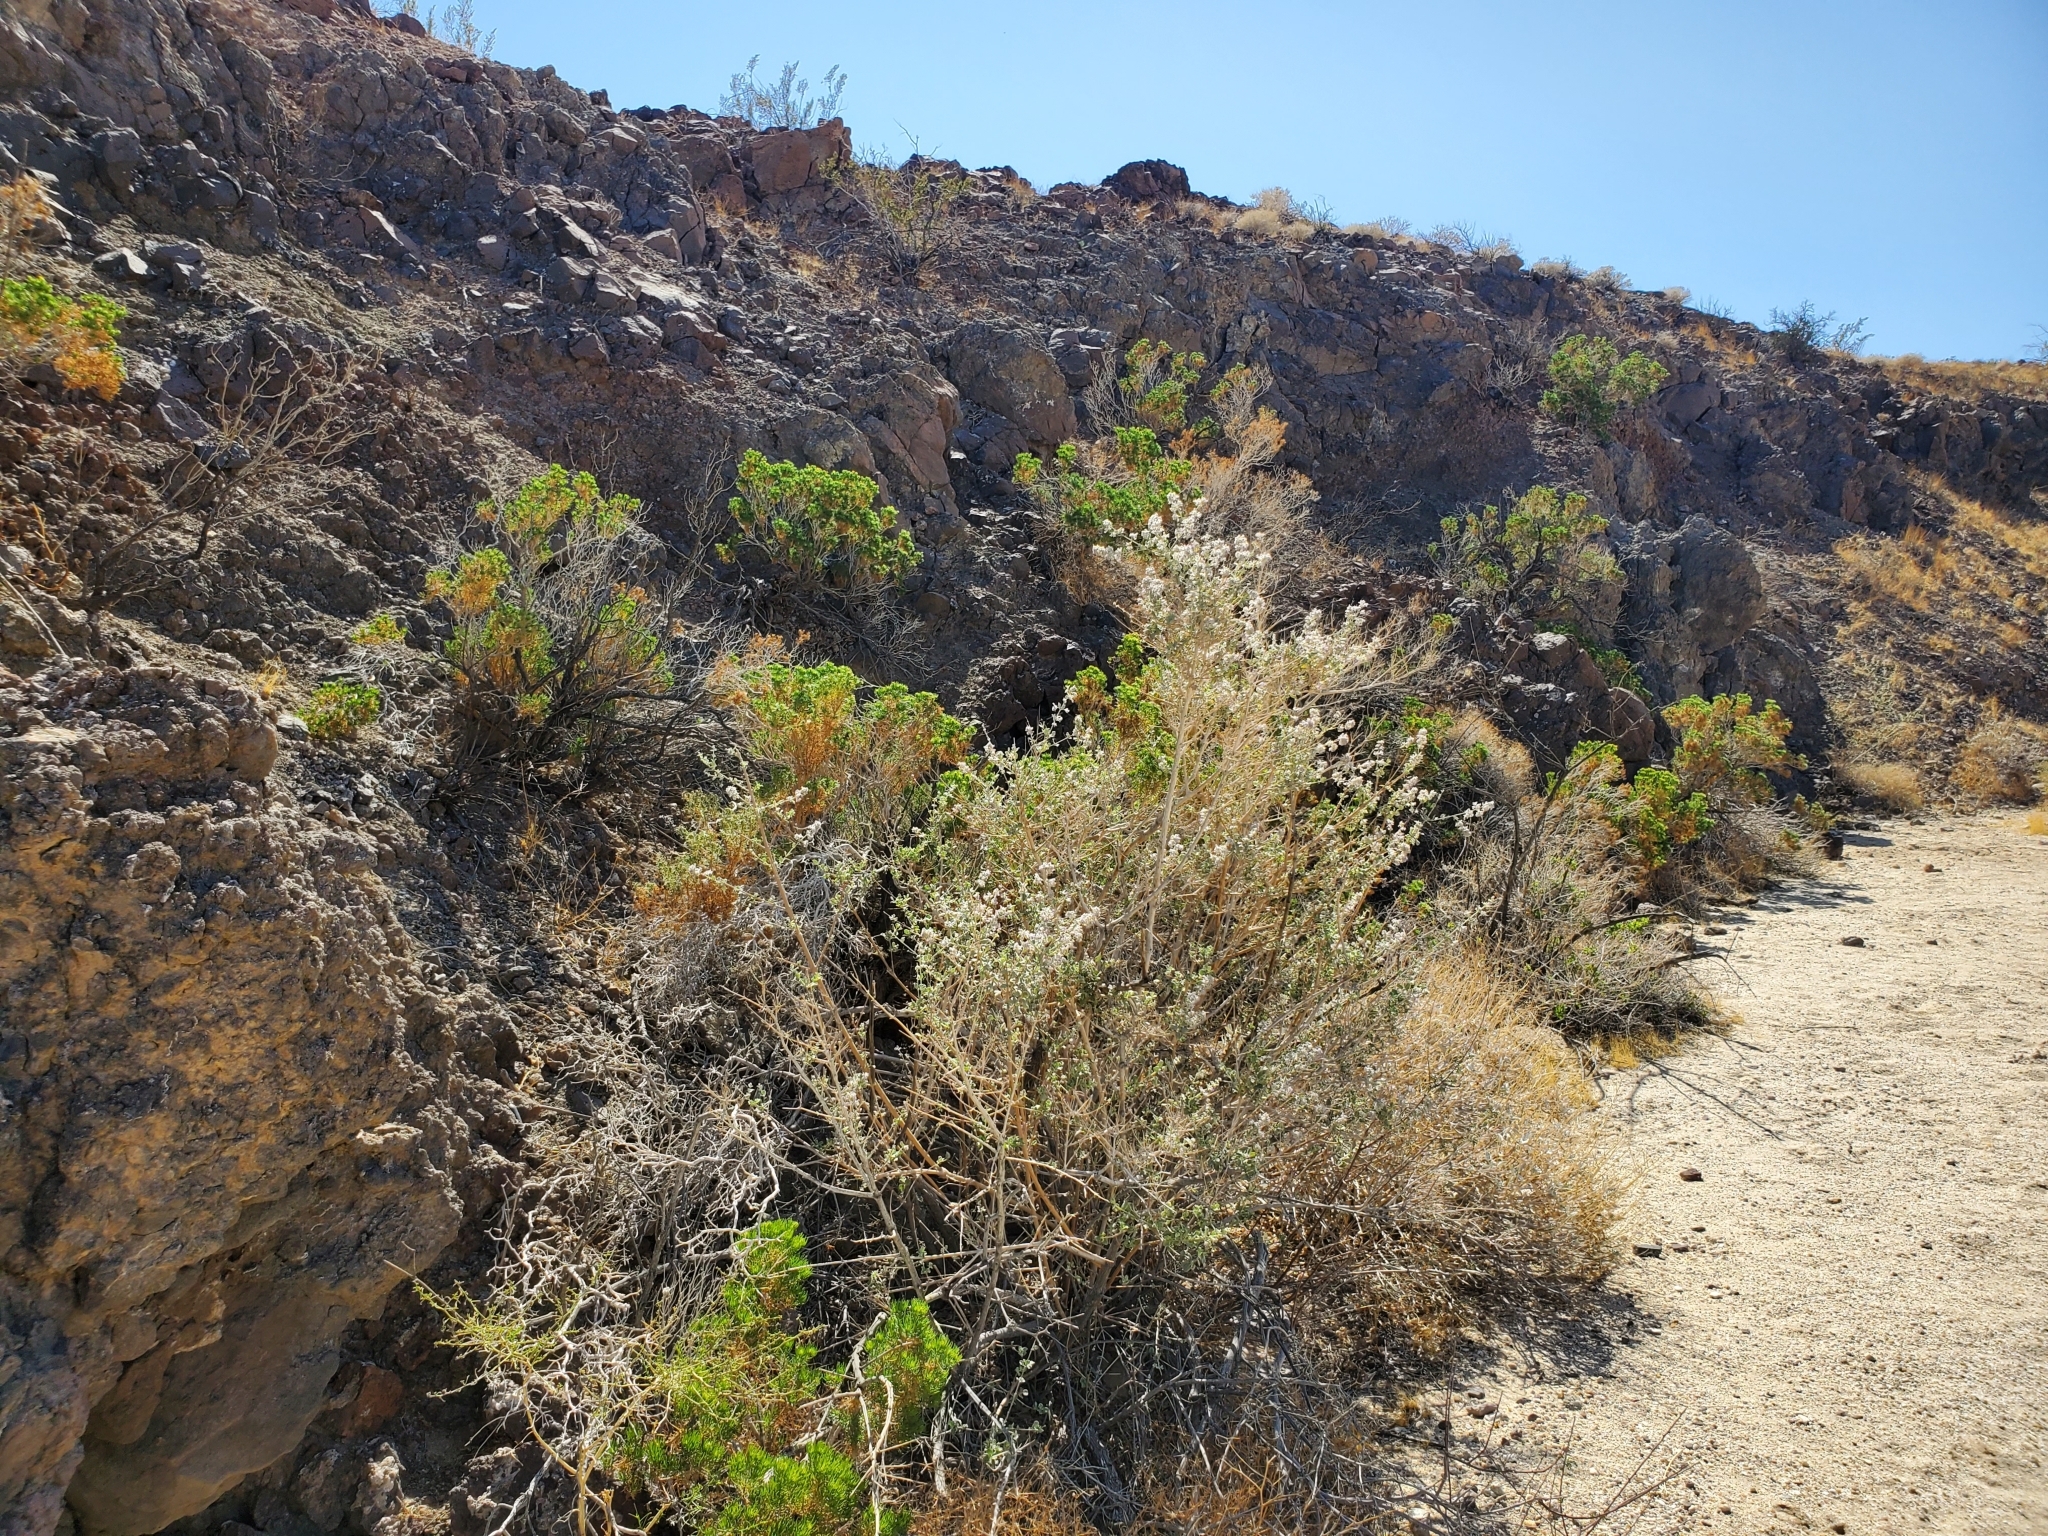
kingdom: Plantae
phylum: Tracheophyta
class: Magnoliopsida
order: Asterales
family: Asteraceae
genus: Peucephyllum
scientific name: Peucephyllum schottii
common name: Pygmy-cedar
